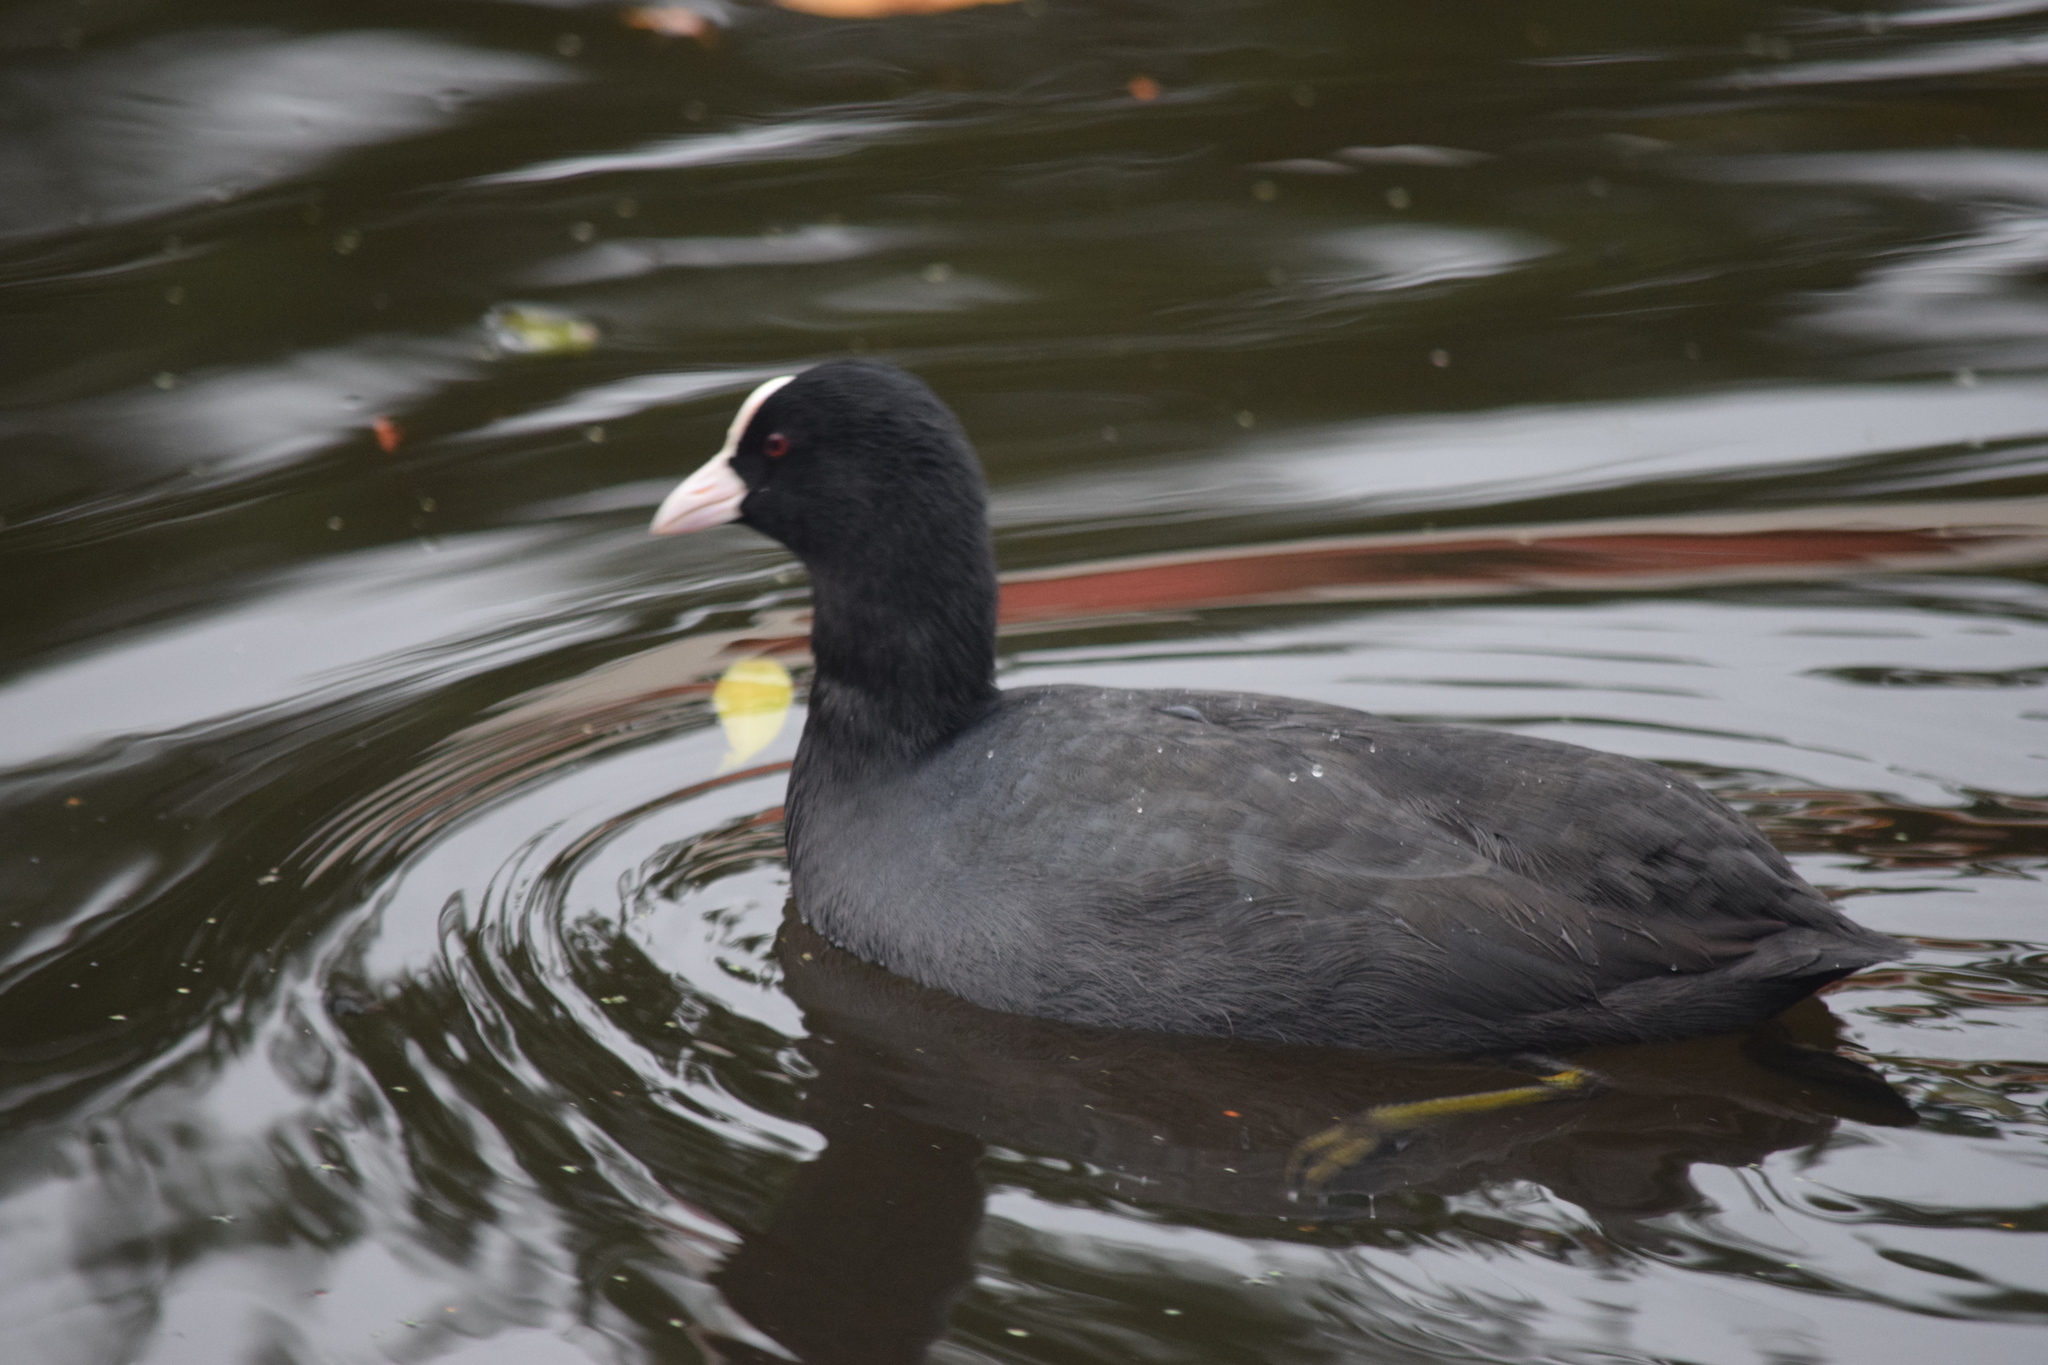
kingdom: Animalia
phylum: Chordata
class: Aves
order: Gruiformes
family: Rallidae
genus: Fulica
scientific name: Fulica atra
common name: Eurasian coot
